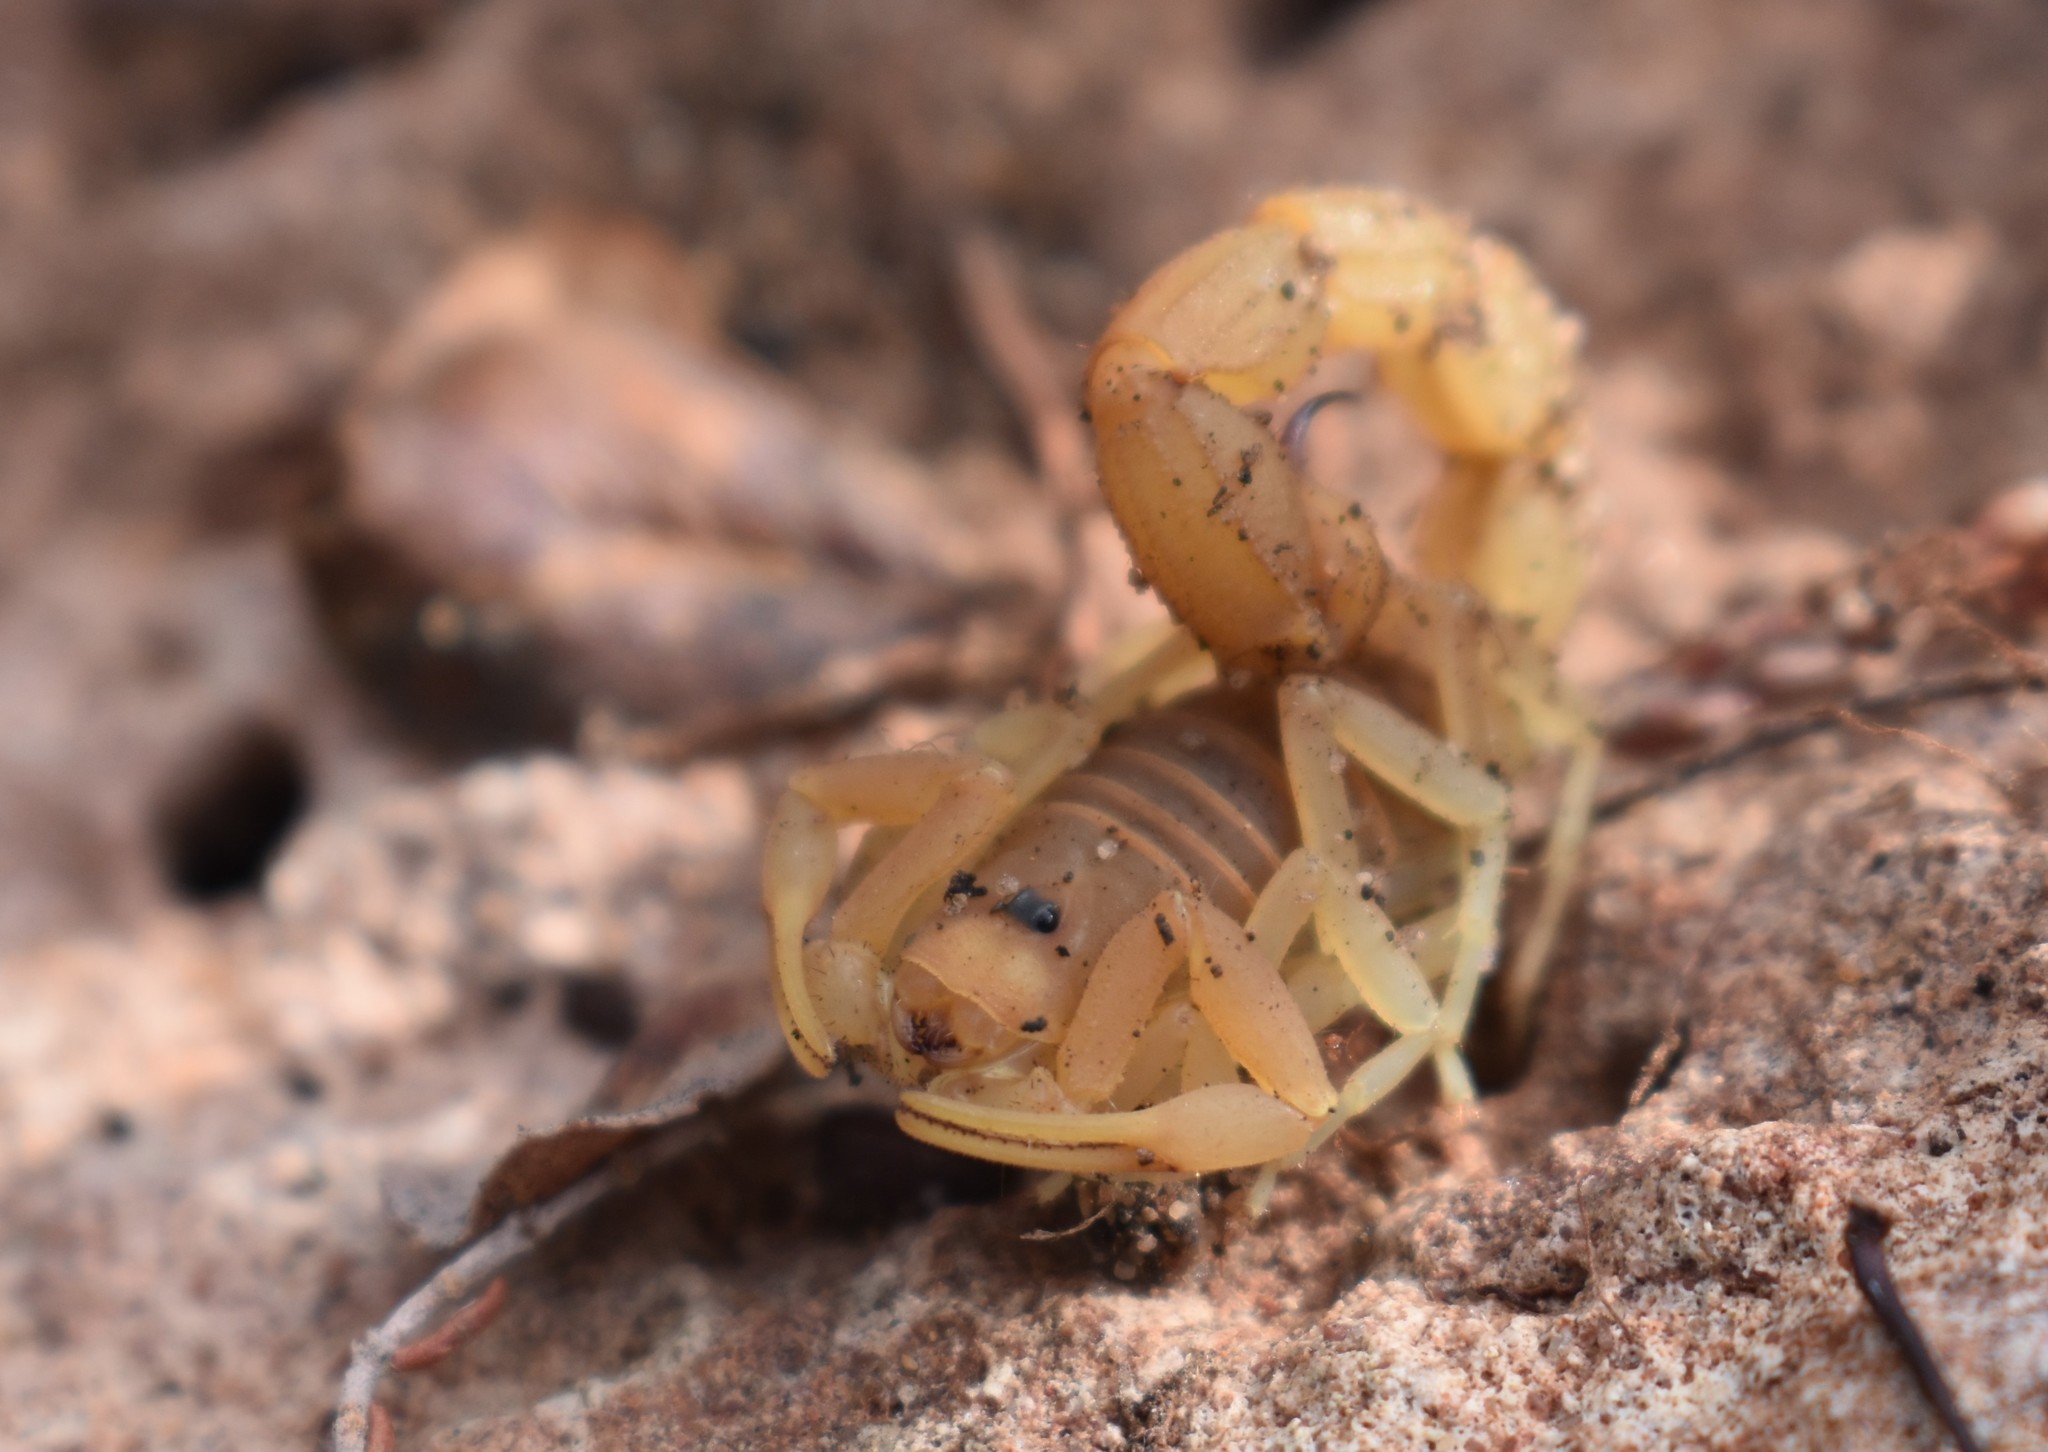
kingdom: Animalia
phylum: Arthropoda
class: Arachnida
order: Scorpiones
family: Buthidae
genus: Parabuthus
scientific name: Parabuthus planicauda
